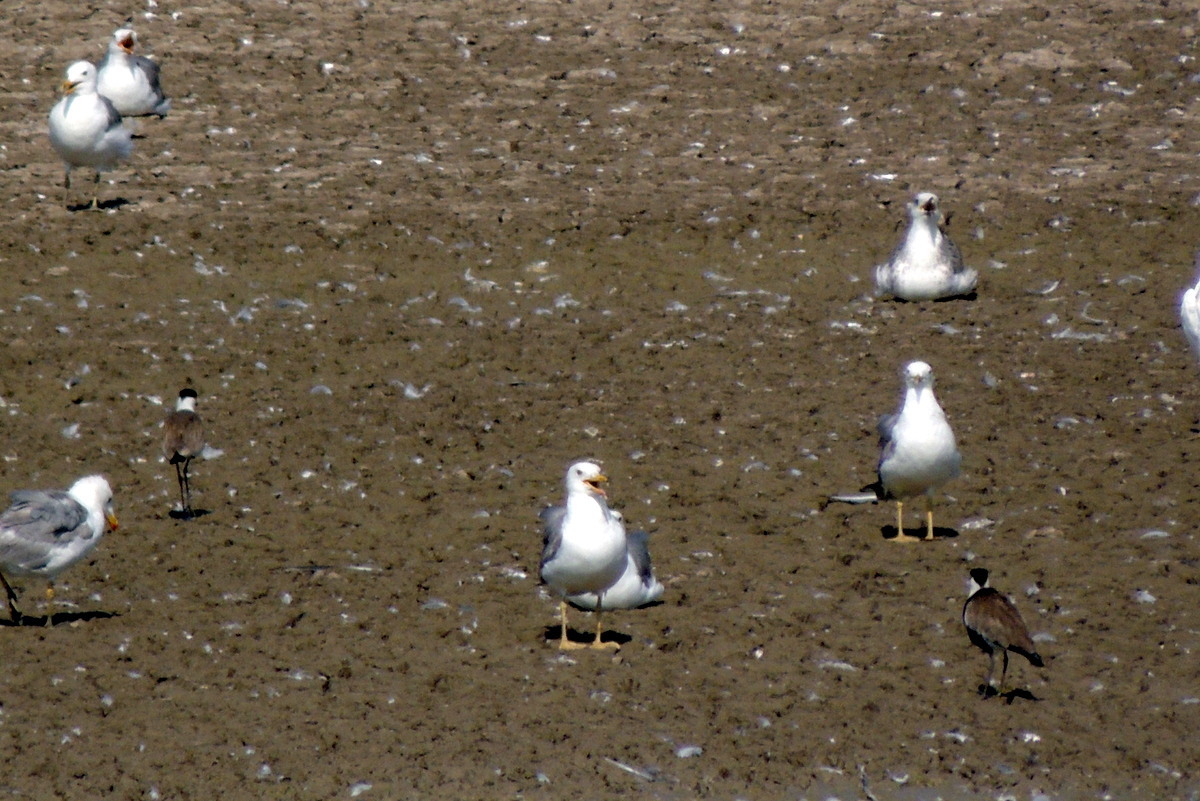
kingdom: Animalia
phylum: Chordata
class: Aves
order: Charadriiformes
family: Laridae
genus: Larus
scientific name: Larus michahellis
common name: Yellow-legged gull
